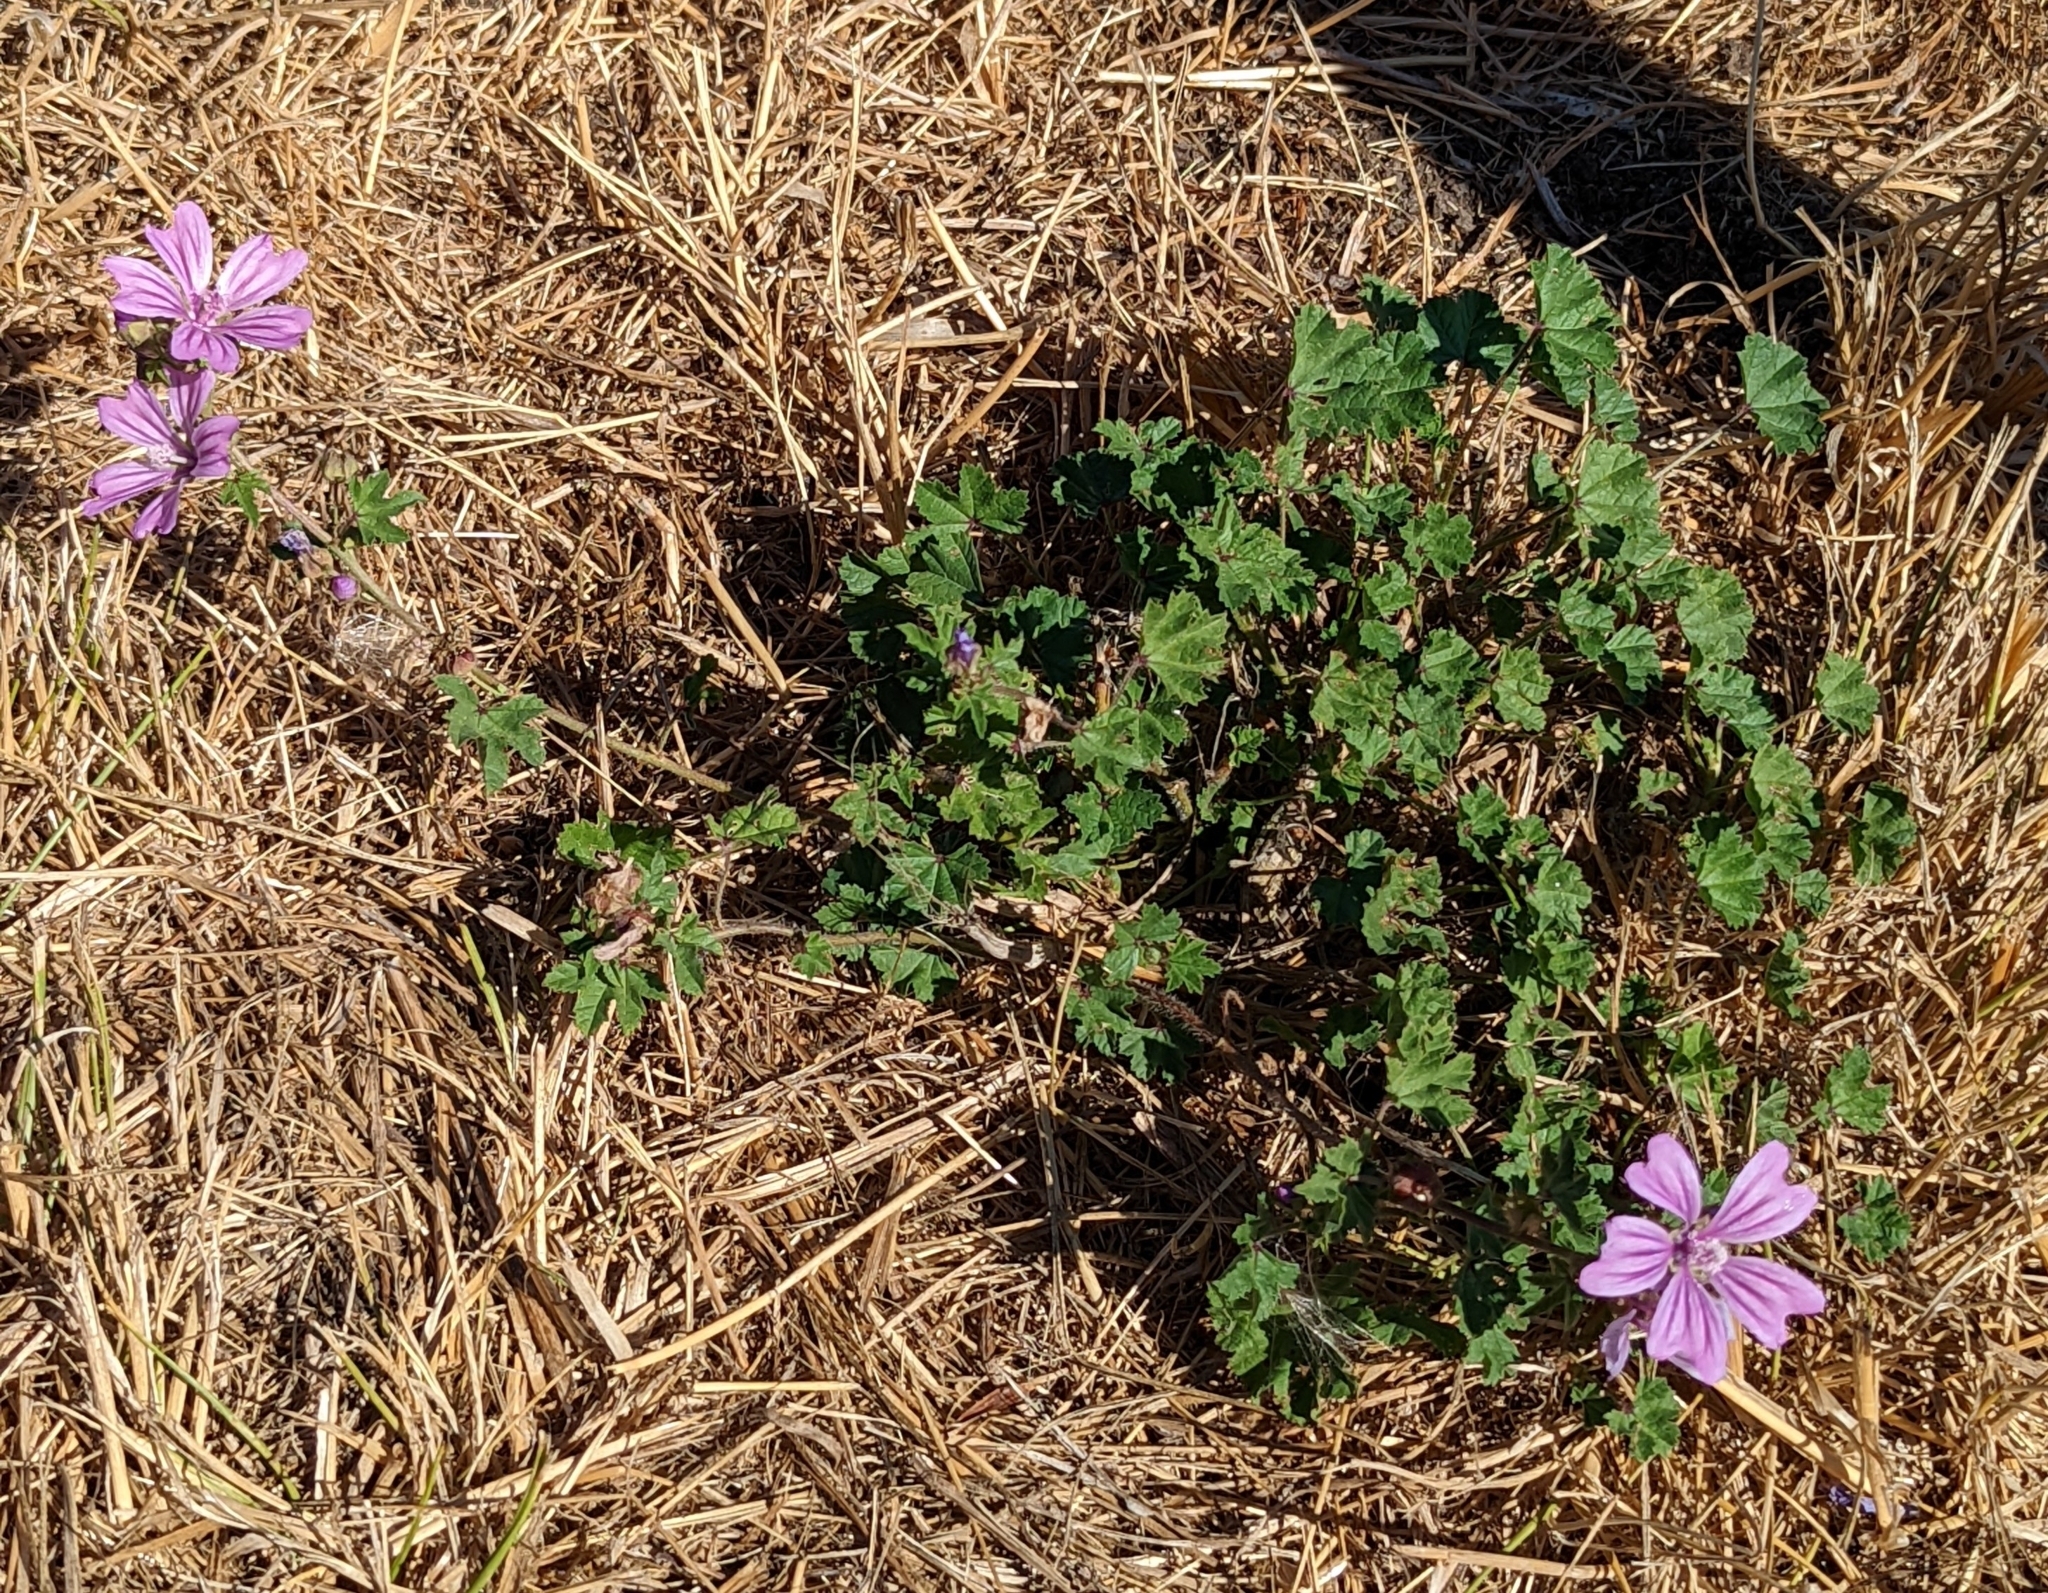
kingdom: Plantae
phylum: Tracheophyta
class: Magnoliopsida
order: Malvales
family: Malvaceae
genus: Malva
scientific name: Malva sylvestris
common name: Common mallow
